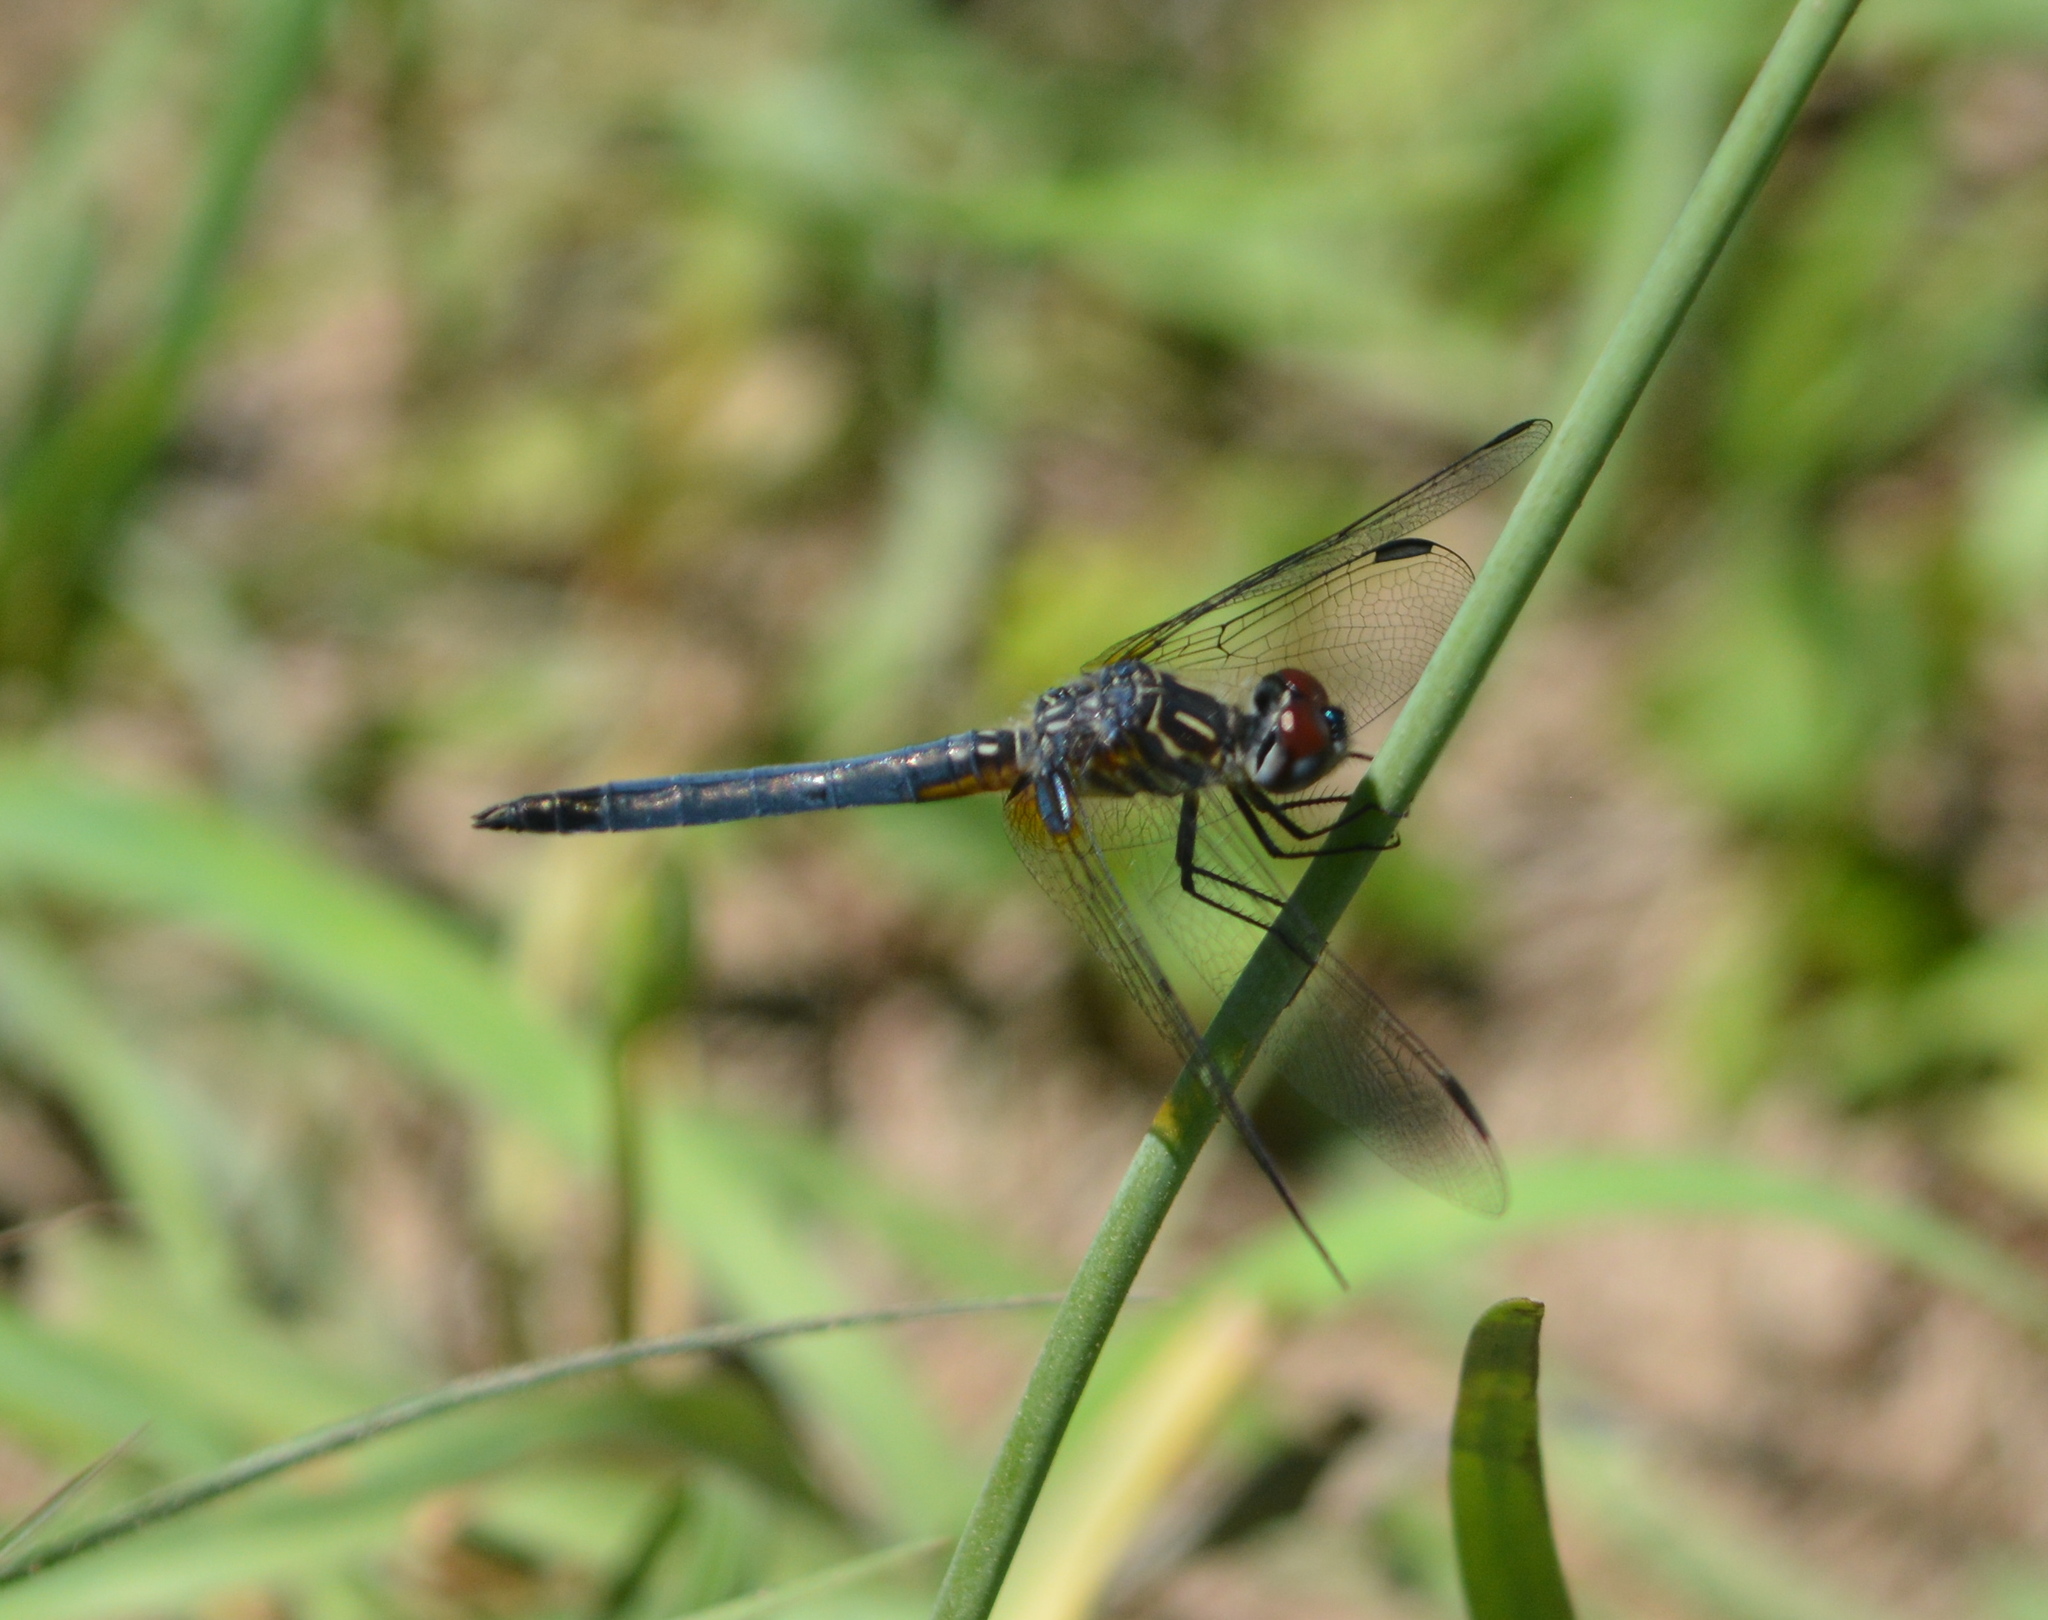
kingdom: Animalia
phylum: Arthropoda
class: Insecta
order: Odonata
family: Libellulidae
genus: Pachydiplax
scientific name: Pachydiplax longipennis
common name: Blue dasher
